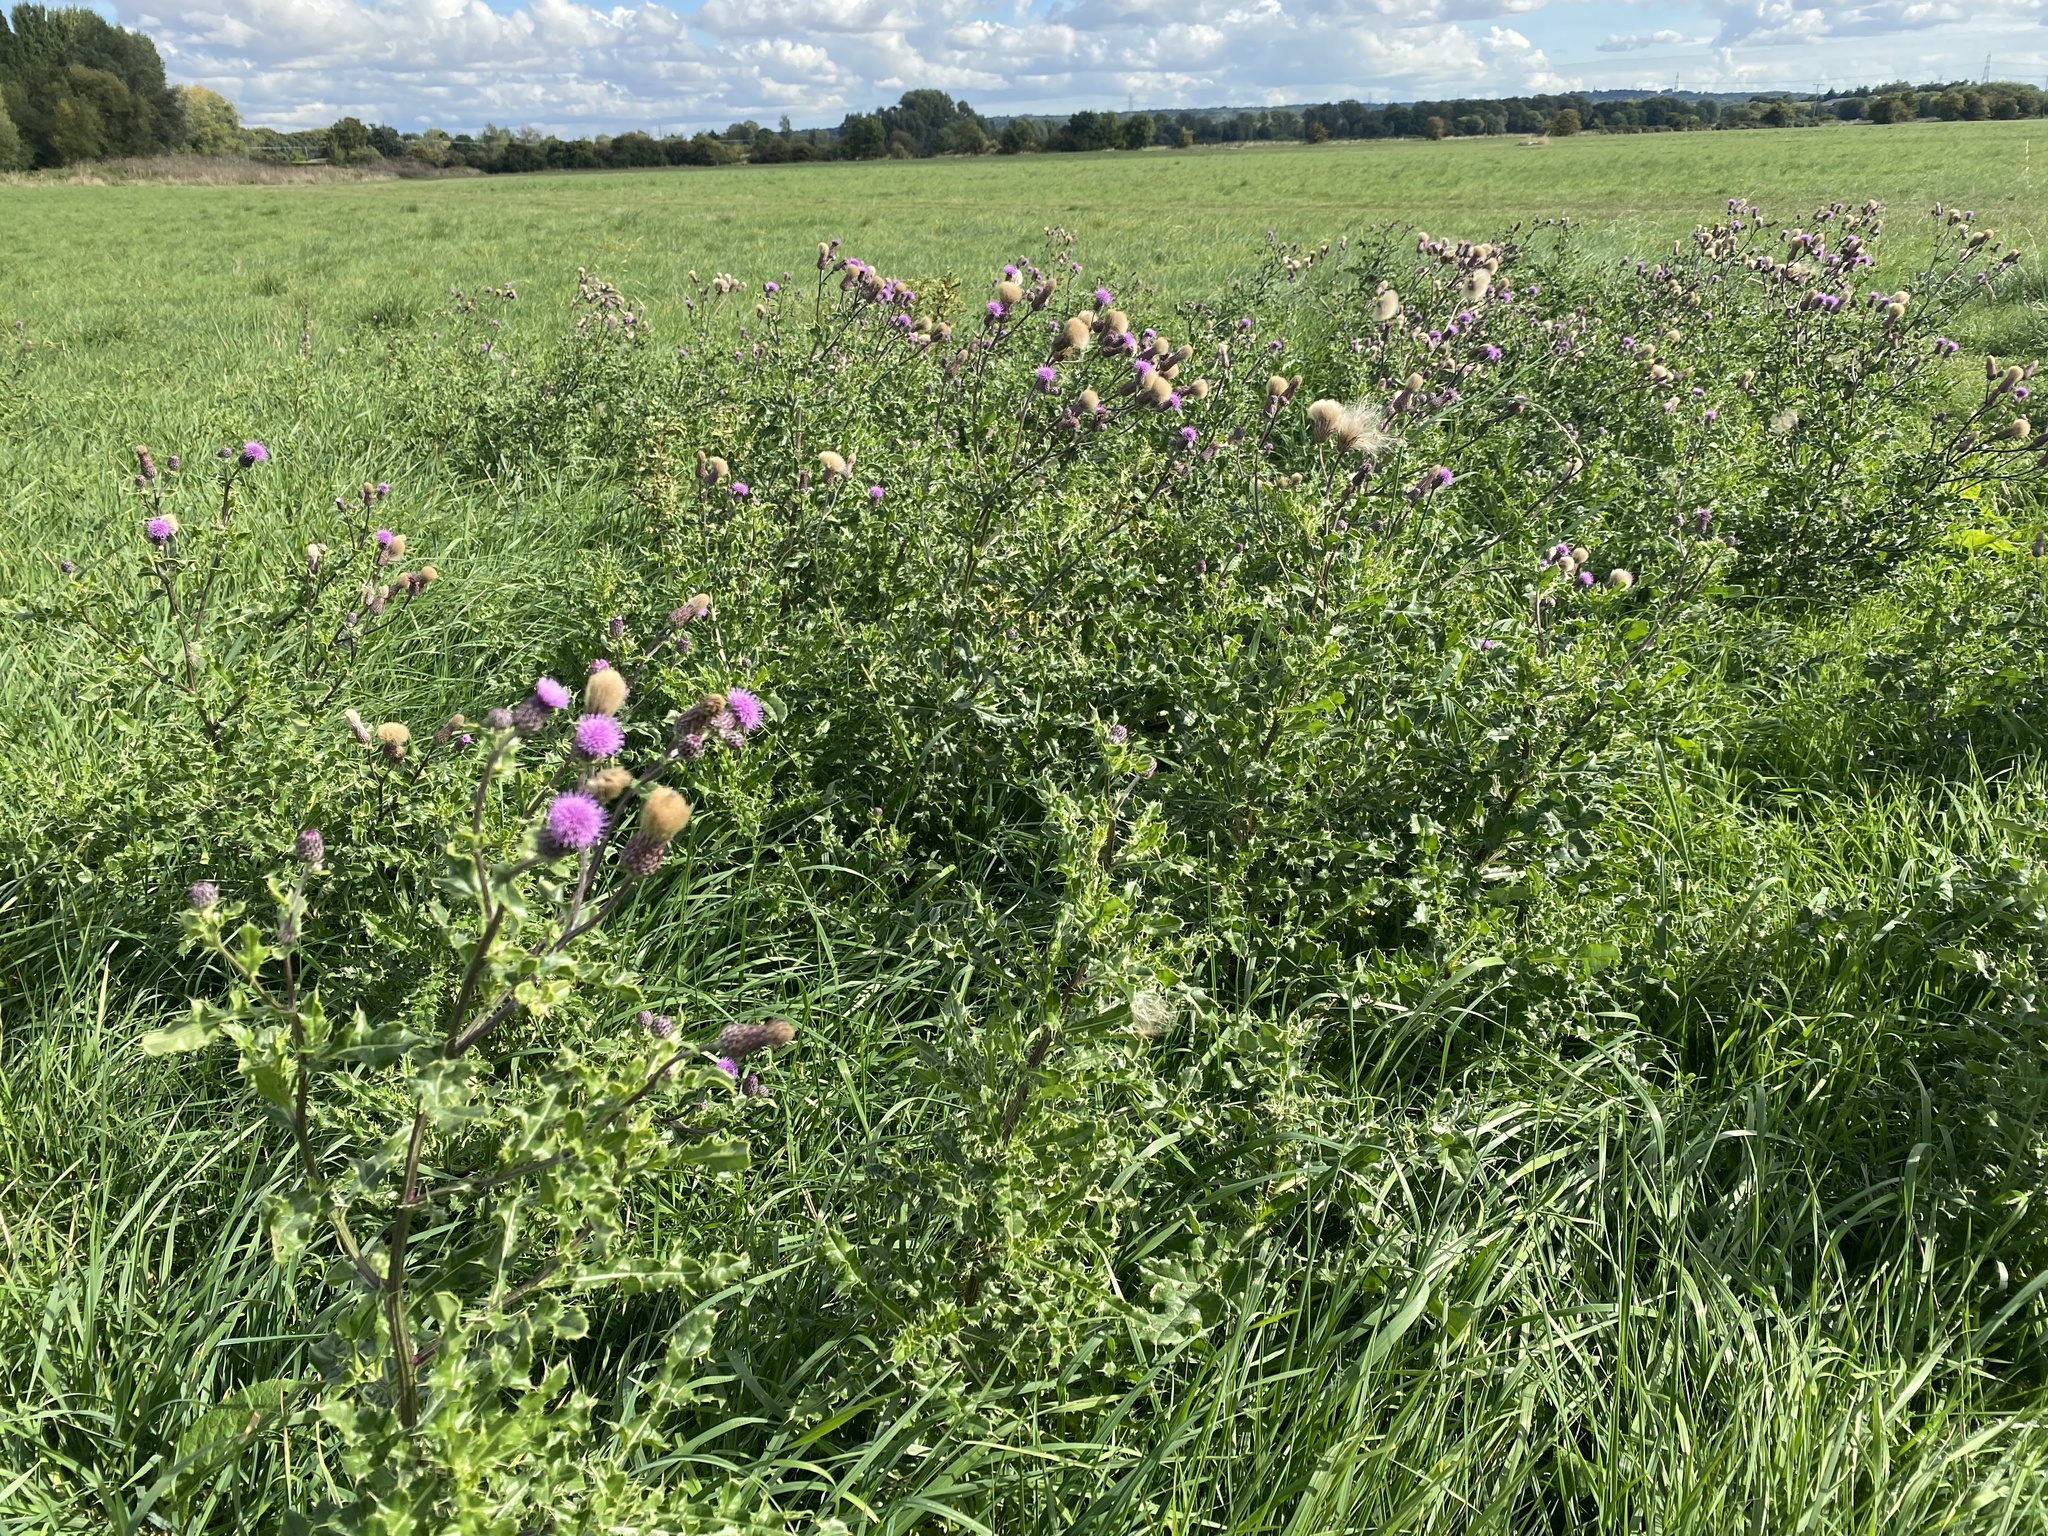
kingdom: Plantae
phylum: Tracheophyta
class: Magnoliopsida
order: Asterales
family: Asteraceae
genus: Cirsium
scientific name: Cirsium arvense
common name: Creeping thistle
